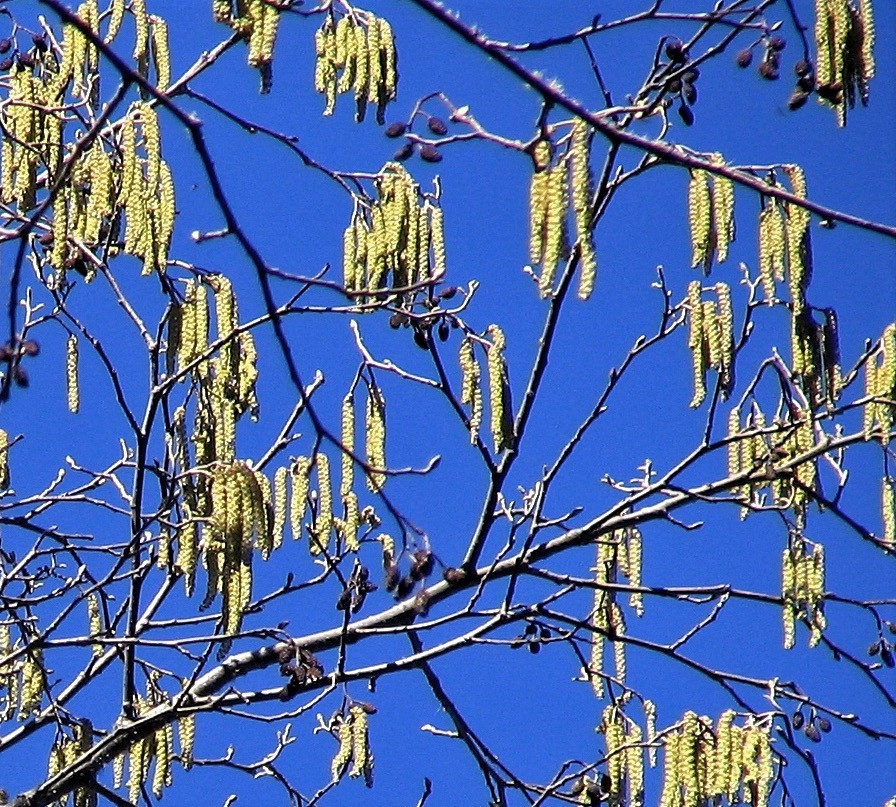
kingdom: Plantae
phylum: Tracheophyta
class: Magnoliopsida
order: Fagales
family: Betulaceae
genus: Alnus
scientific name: Alnus acuminata
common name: Alder
